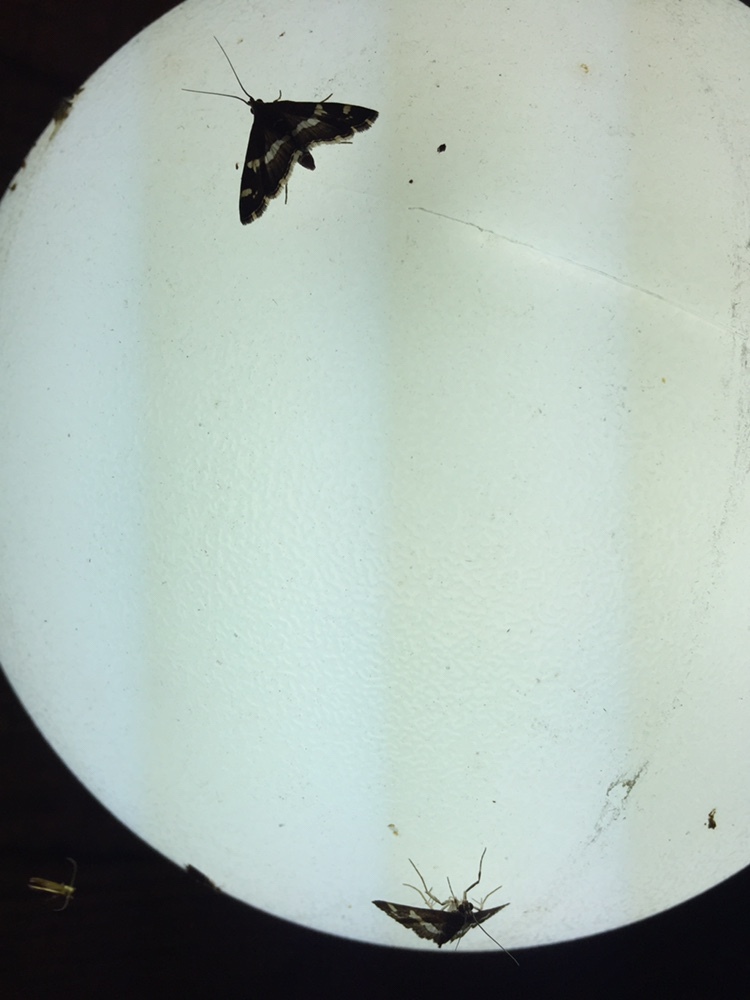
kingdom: Animalia
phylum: Arthropoda
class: Insecta
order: Lepidoptera
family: Crambidae
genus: Spoladea
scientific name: Spoladea recurvalis
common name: Beet webworm moth
